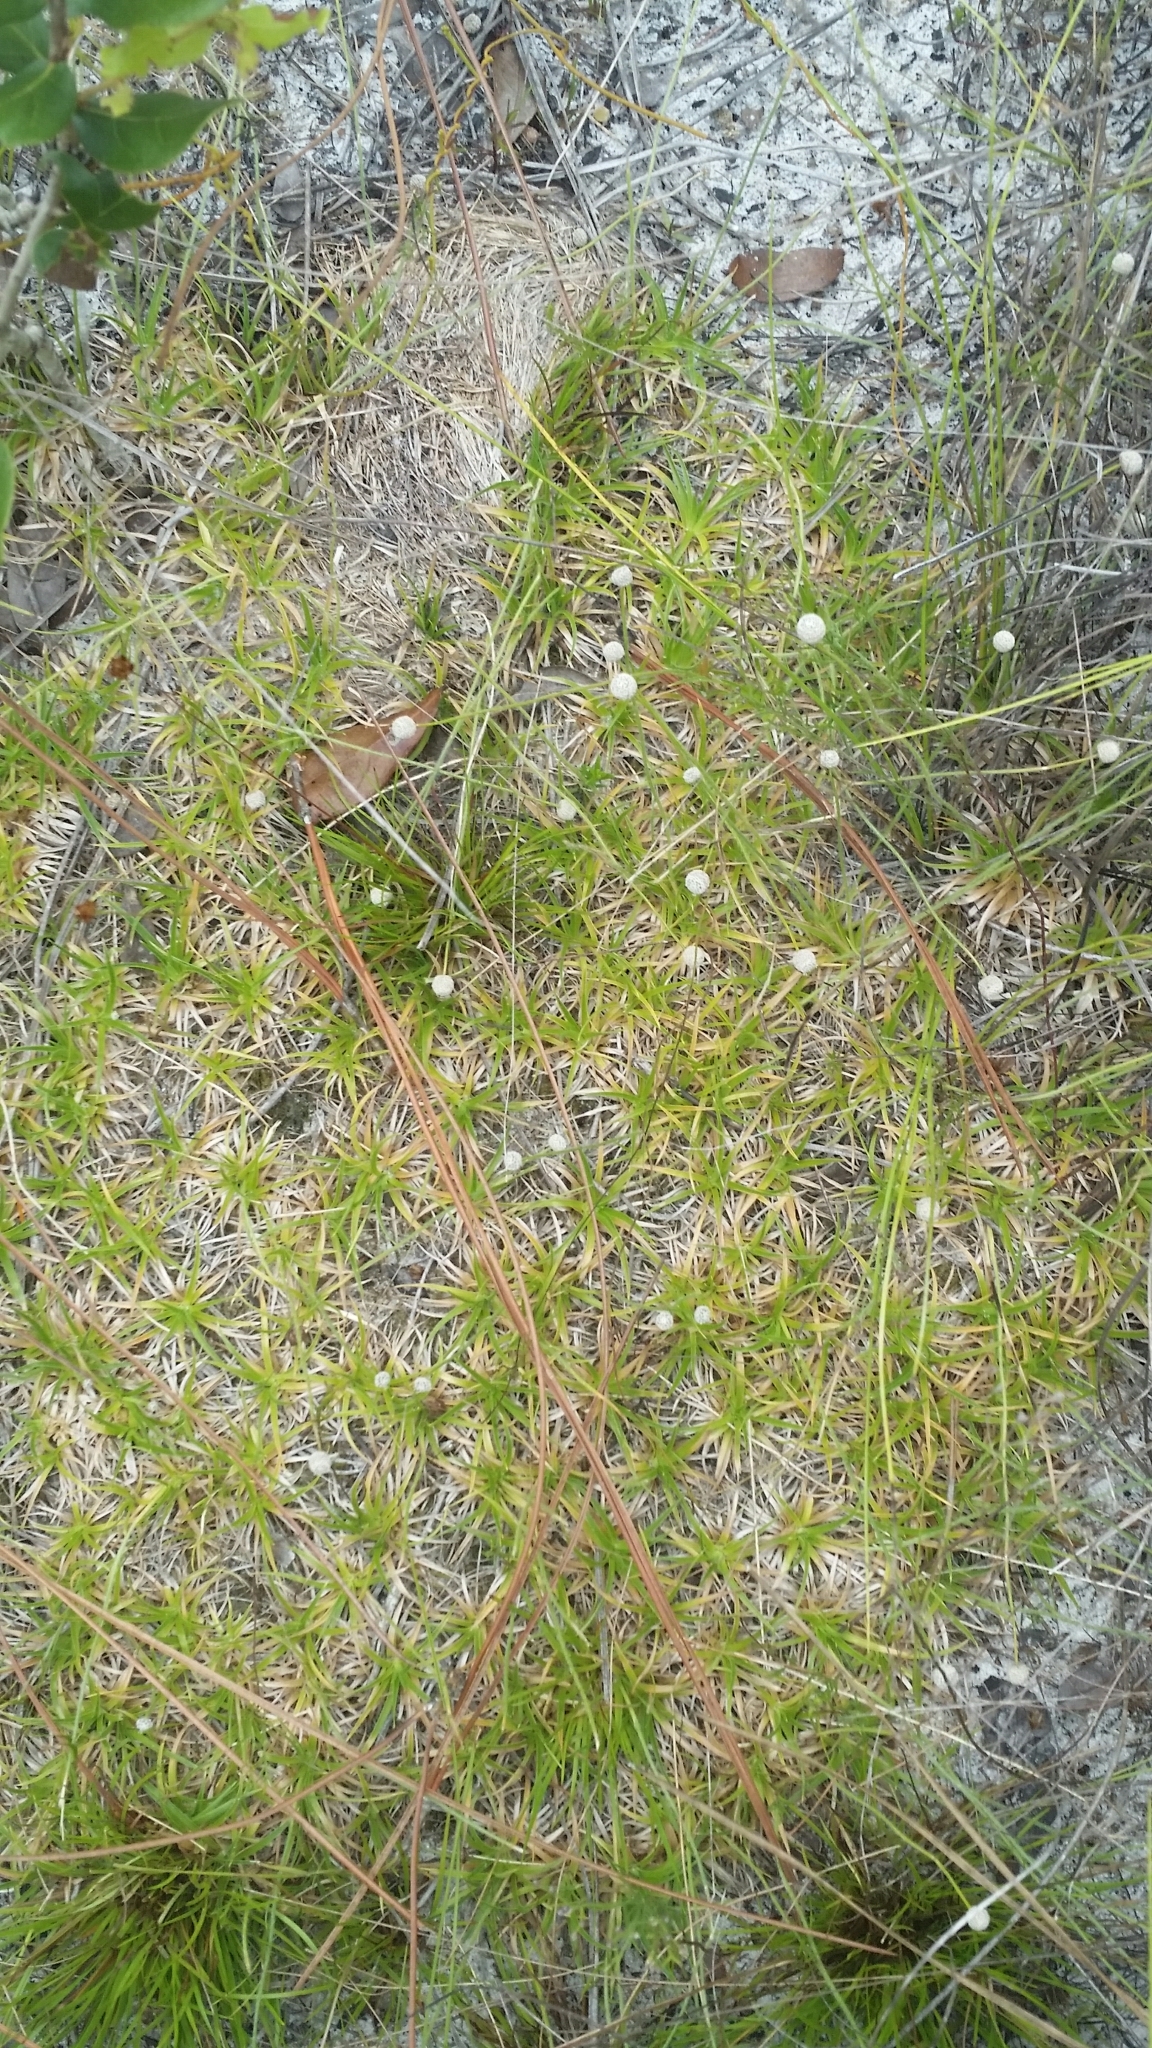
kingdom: Plantae
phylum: Tracheophyta
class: Liliopsida
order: Poales
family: Eriocaulaceae
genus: Paepalanthus
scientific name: Paepalanthus beyrichianus
